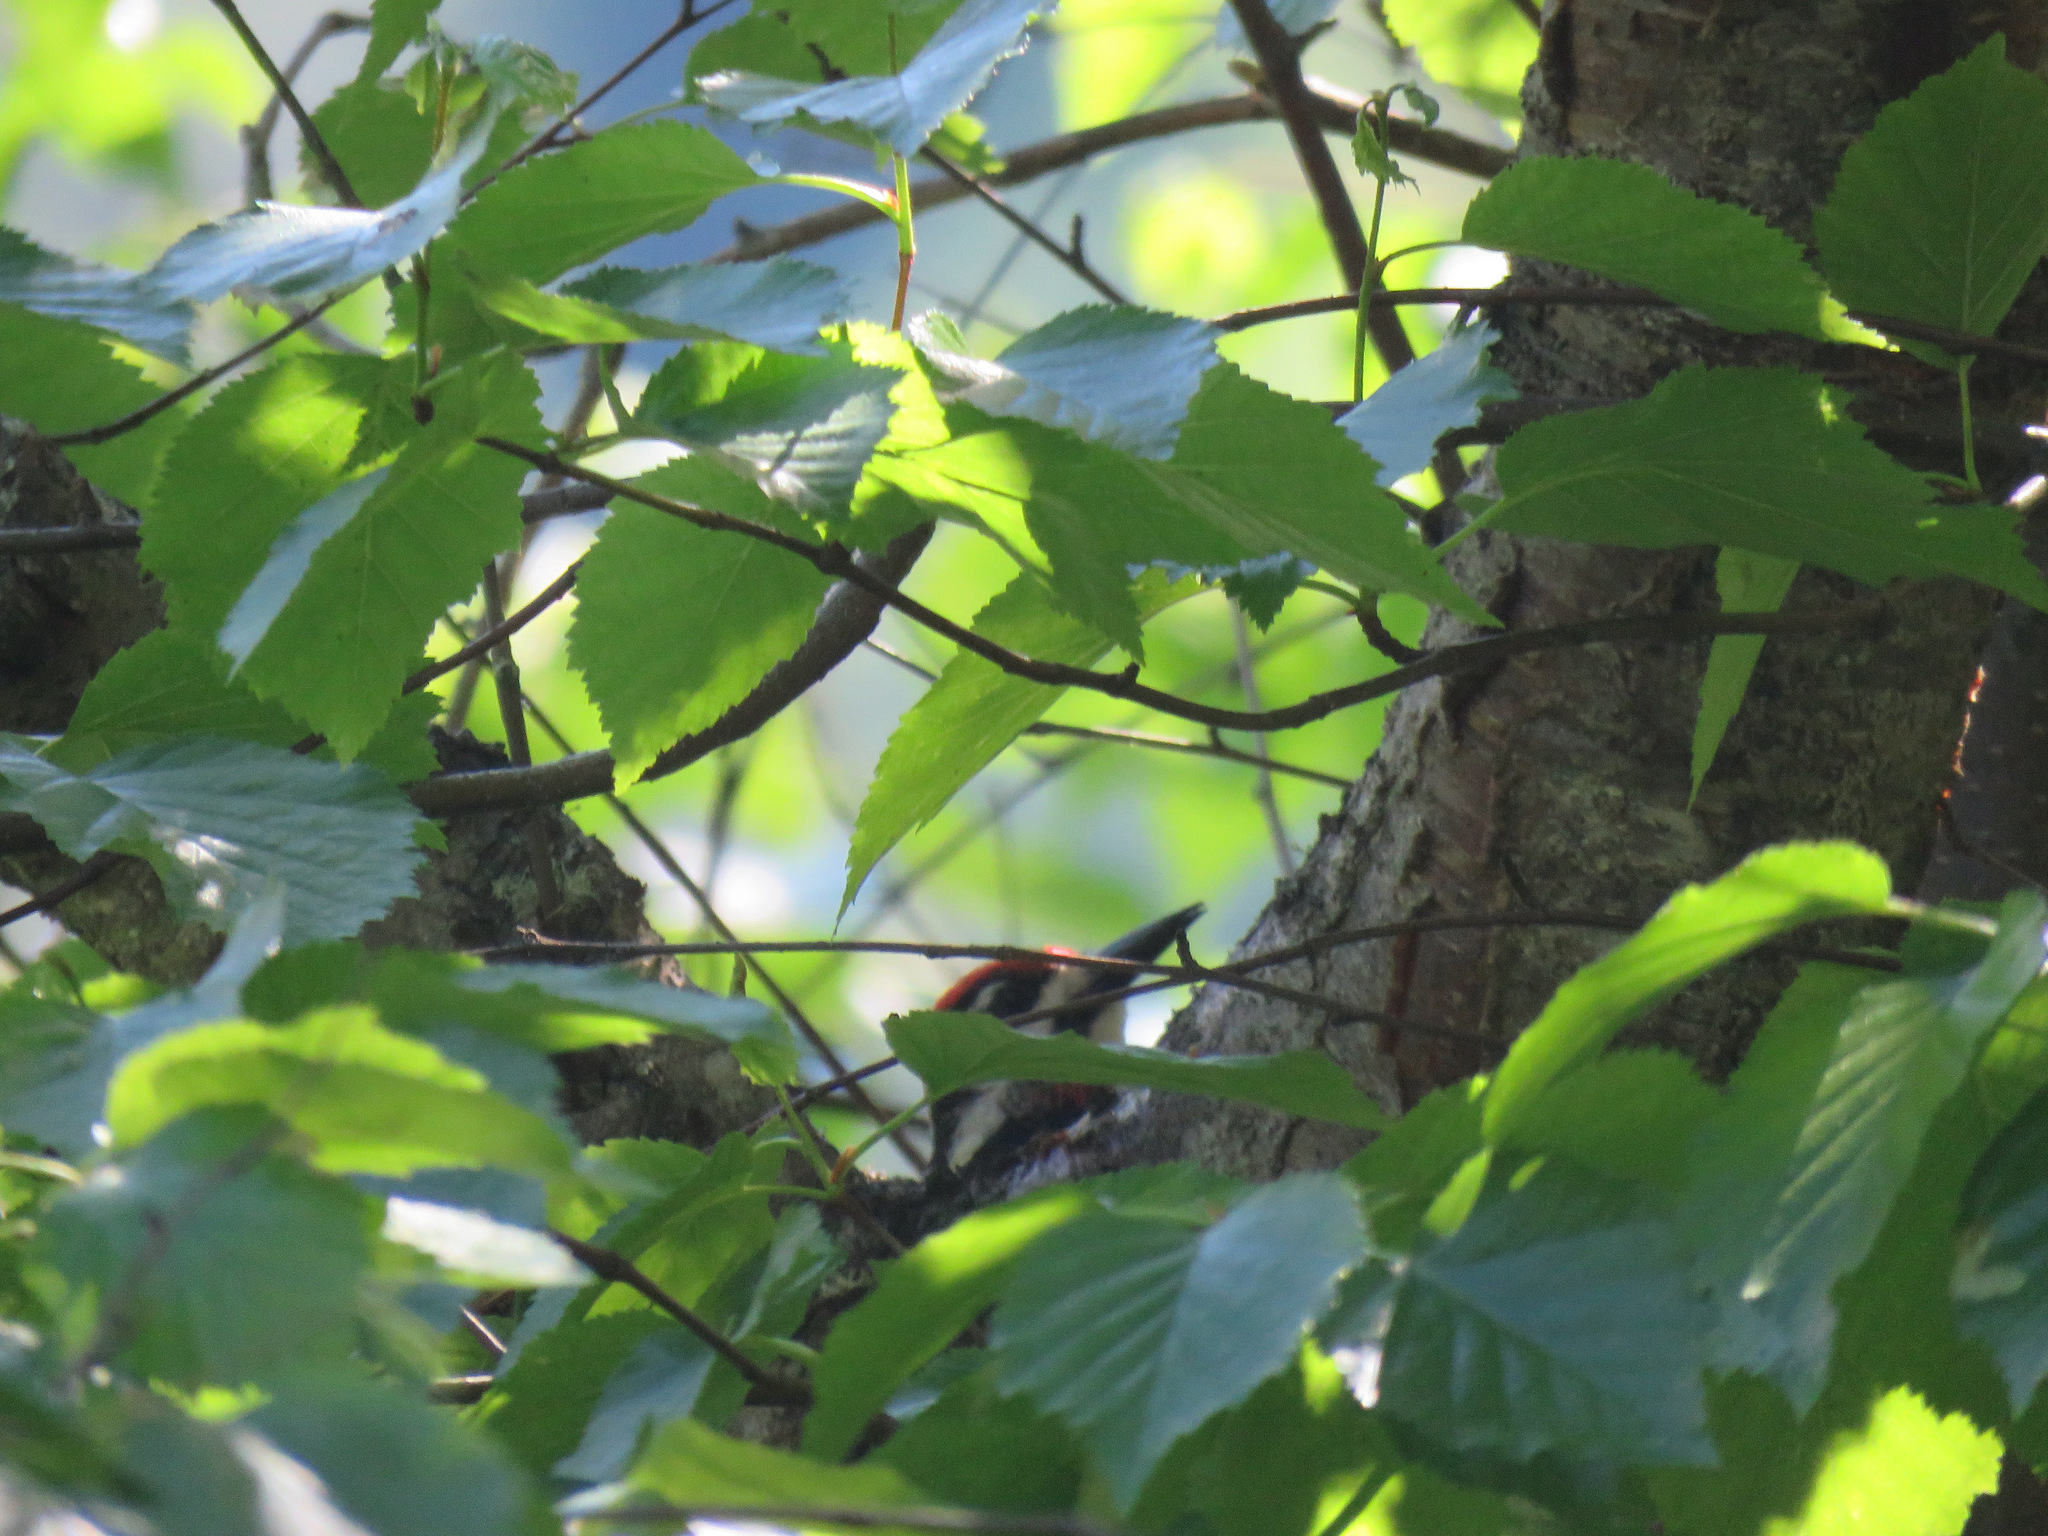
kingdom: Animalia
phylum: Chordata
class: Aves
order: Piciformes
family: Picidae
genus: Sphyrapicus
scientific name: Sphyrapicus nuchalis
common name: Red-naped sapsucker
